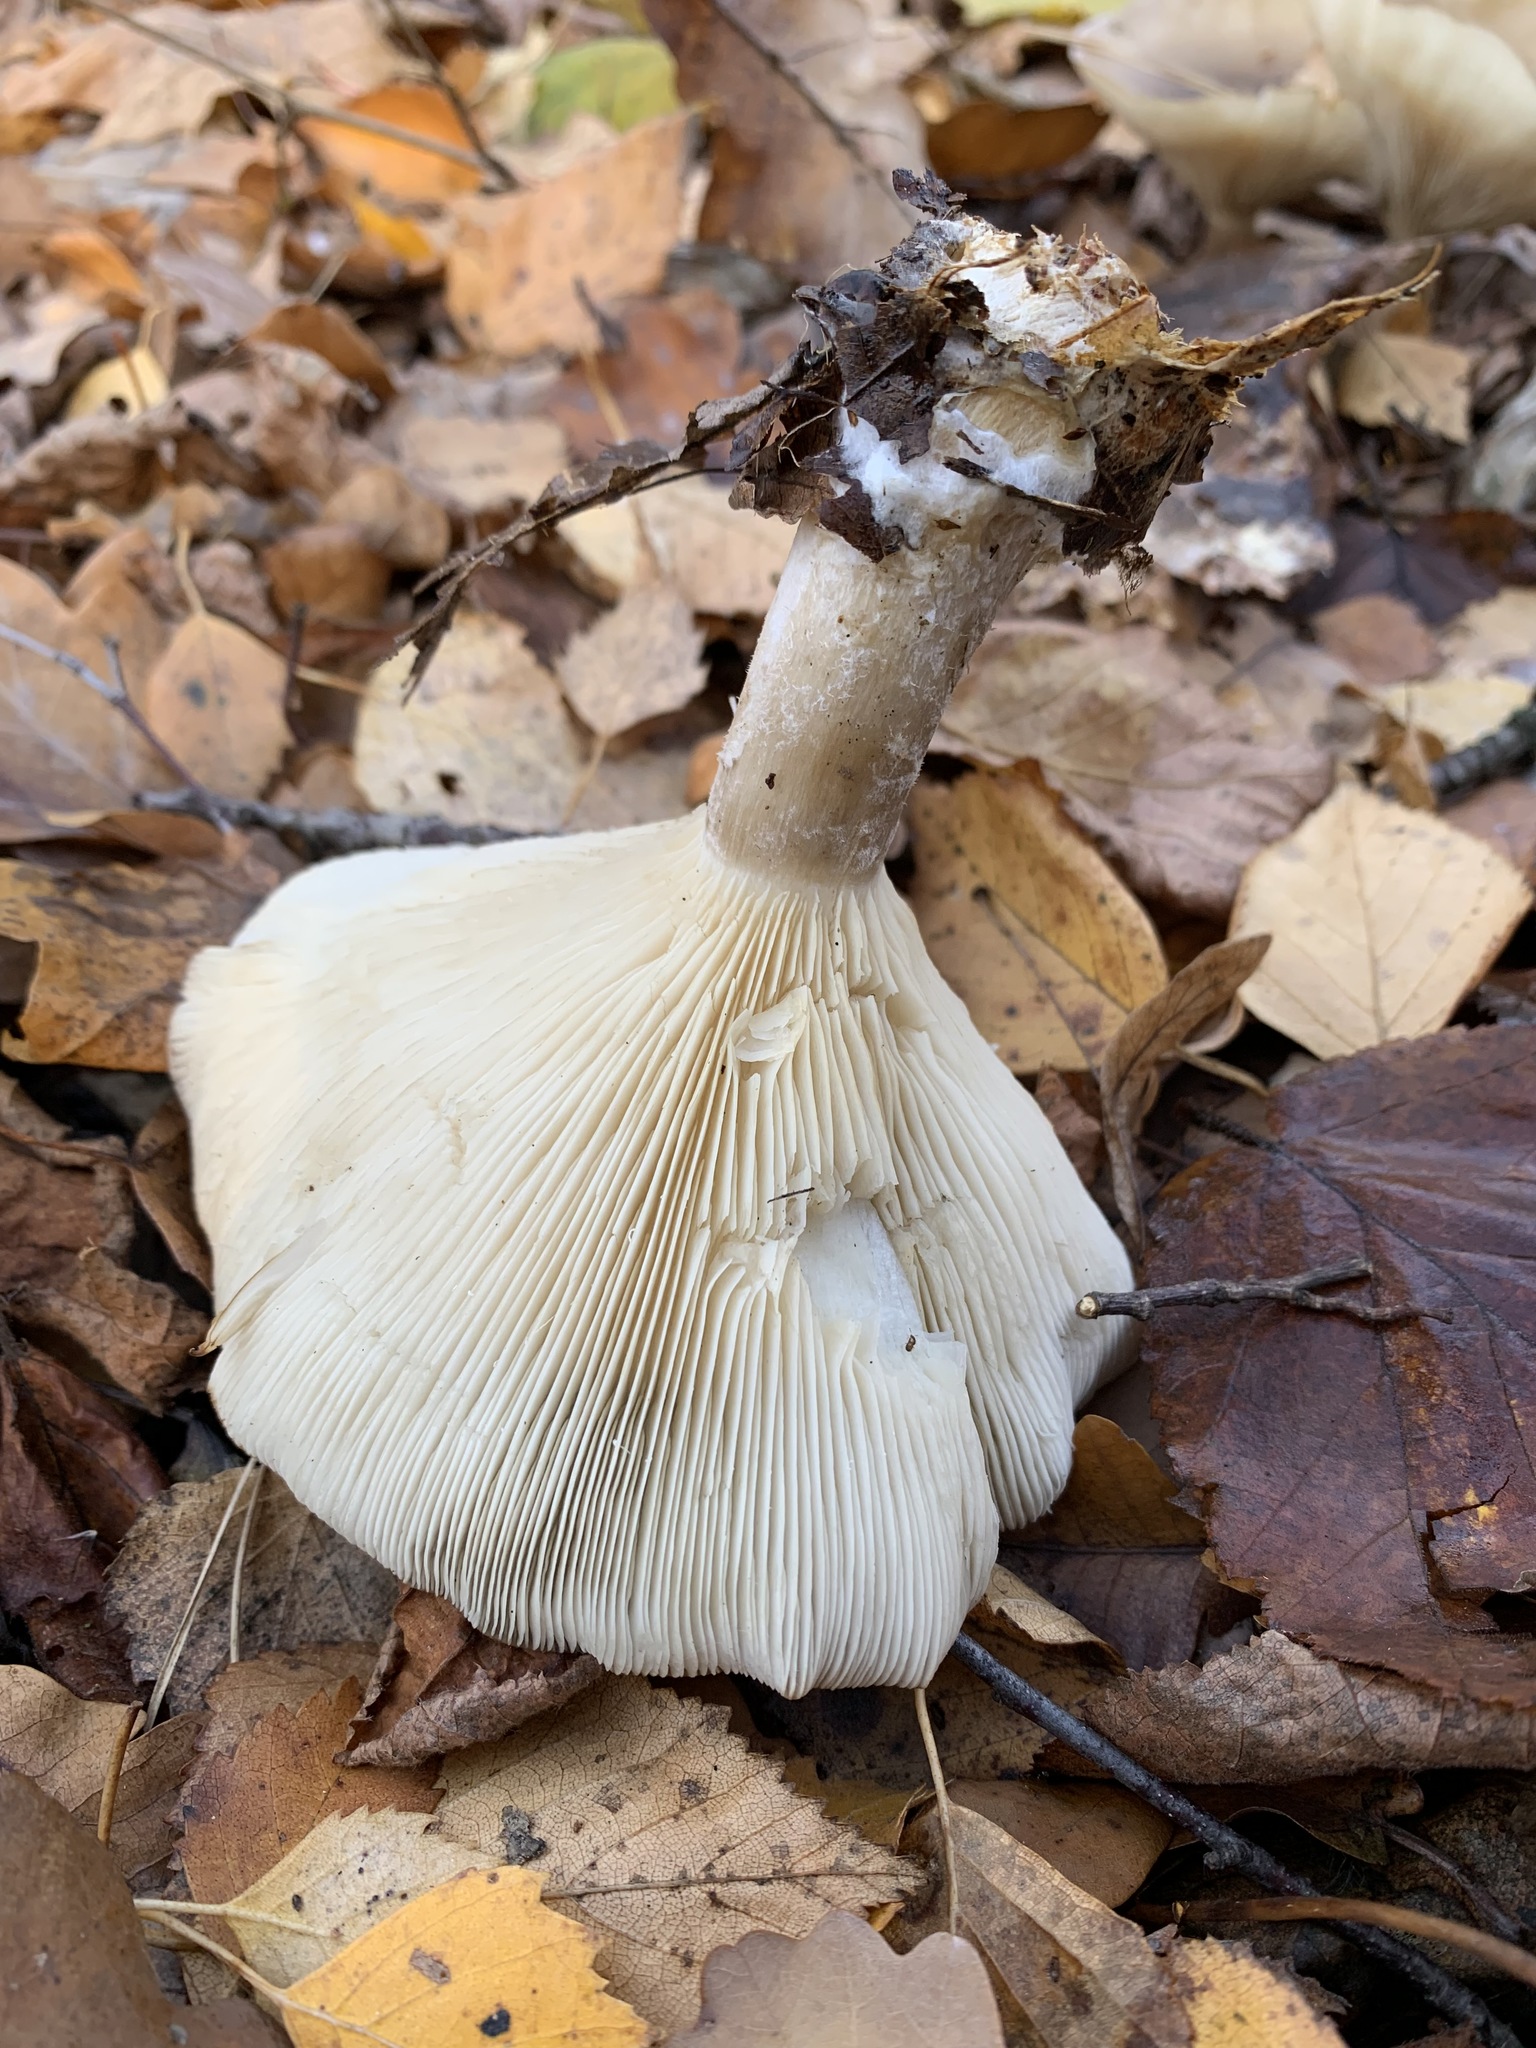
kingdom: Fungi
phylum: Basidiomycota
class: Agaricomycetes
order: Agaricales
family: Tricholomataceae
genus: Clitocybe
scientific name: Clitocybe nebularis
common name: Clouded agaric
